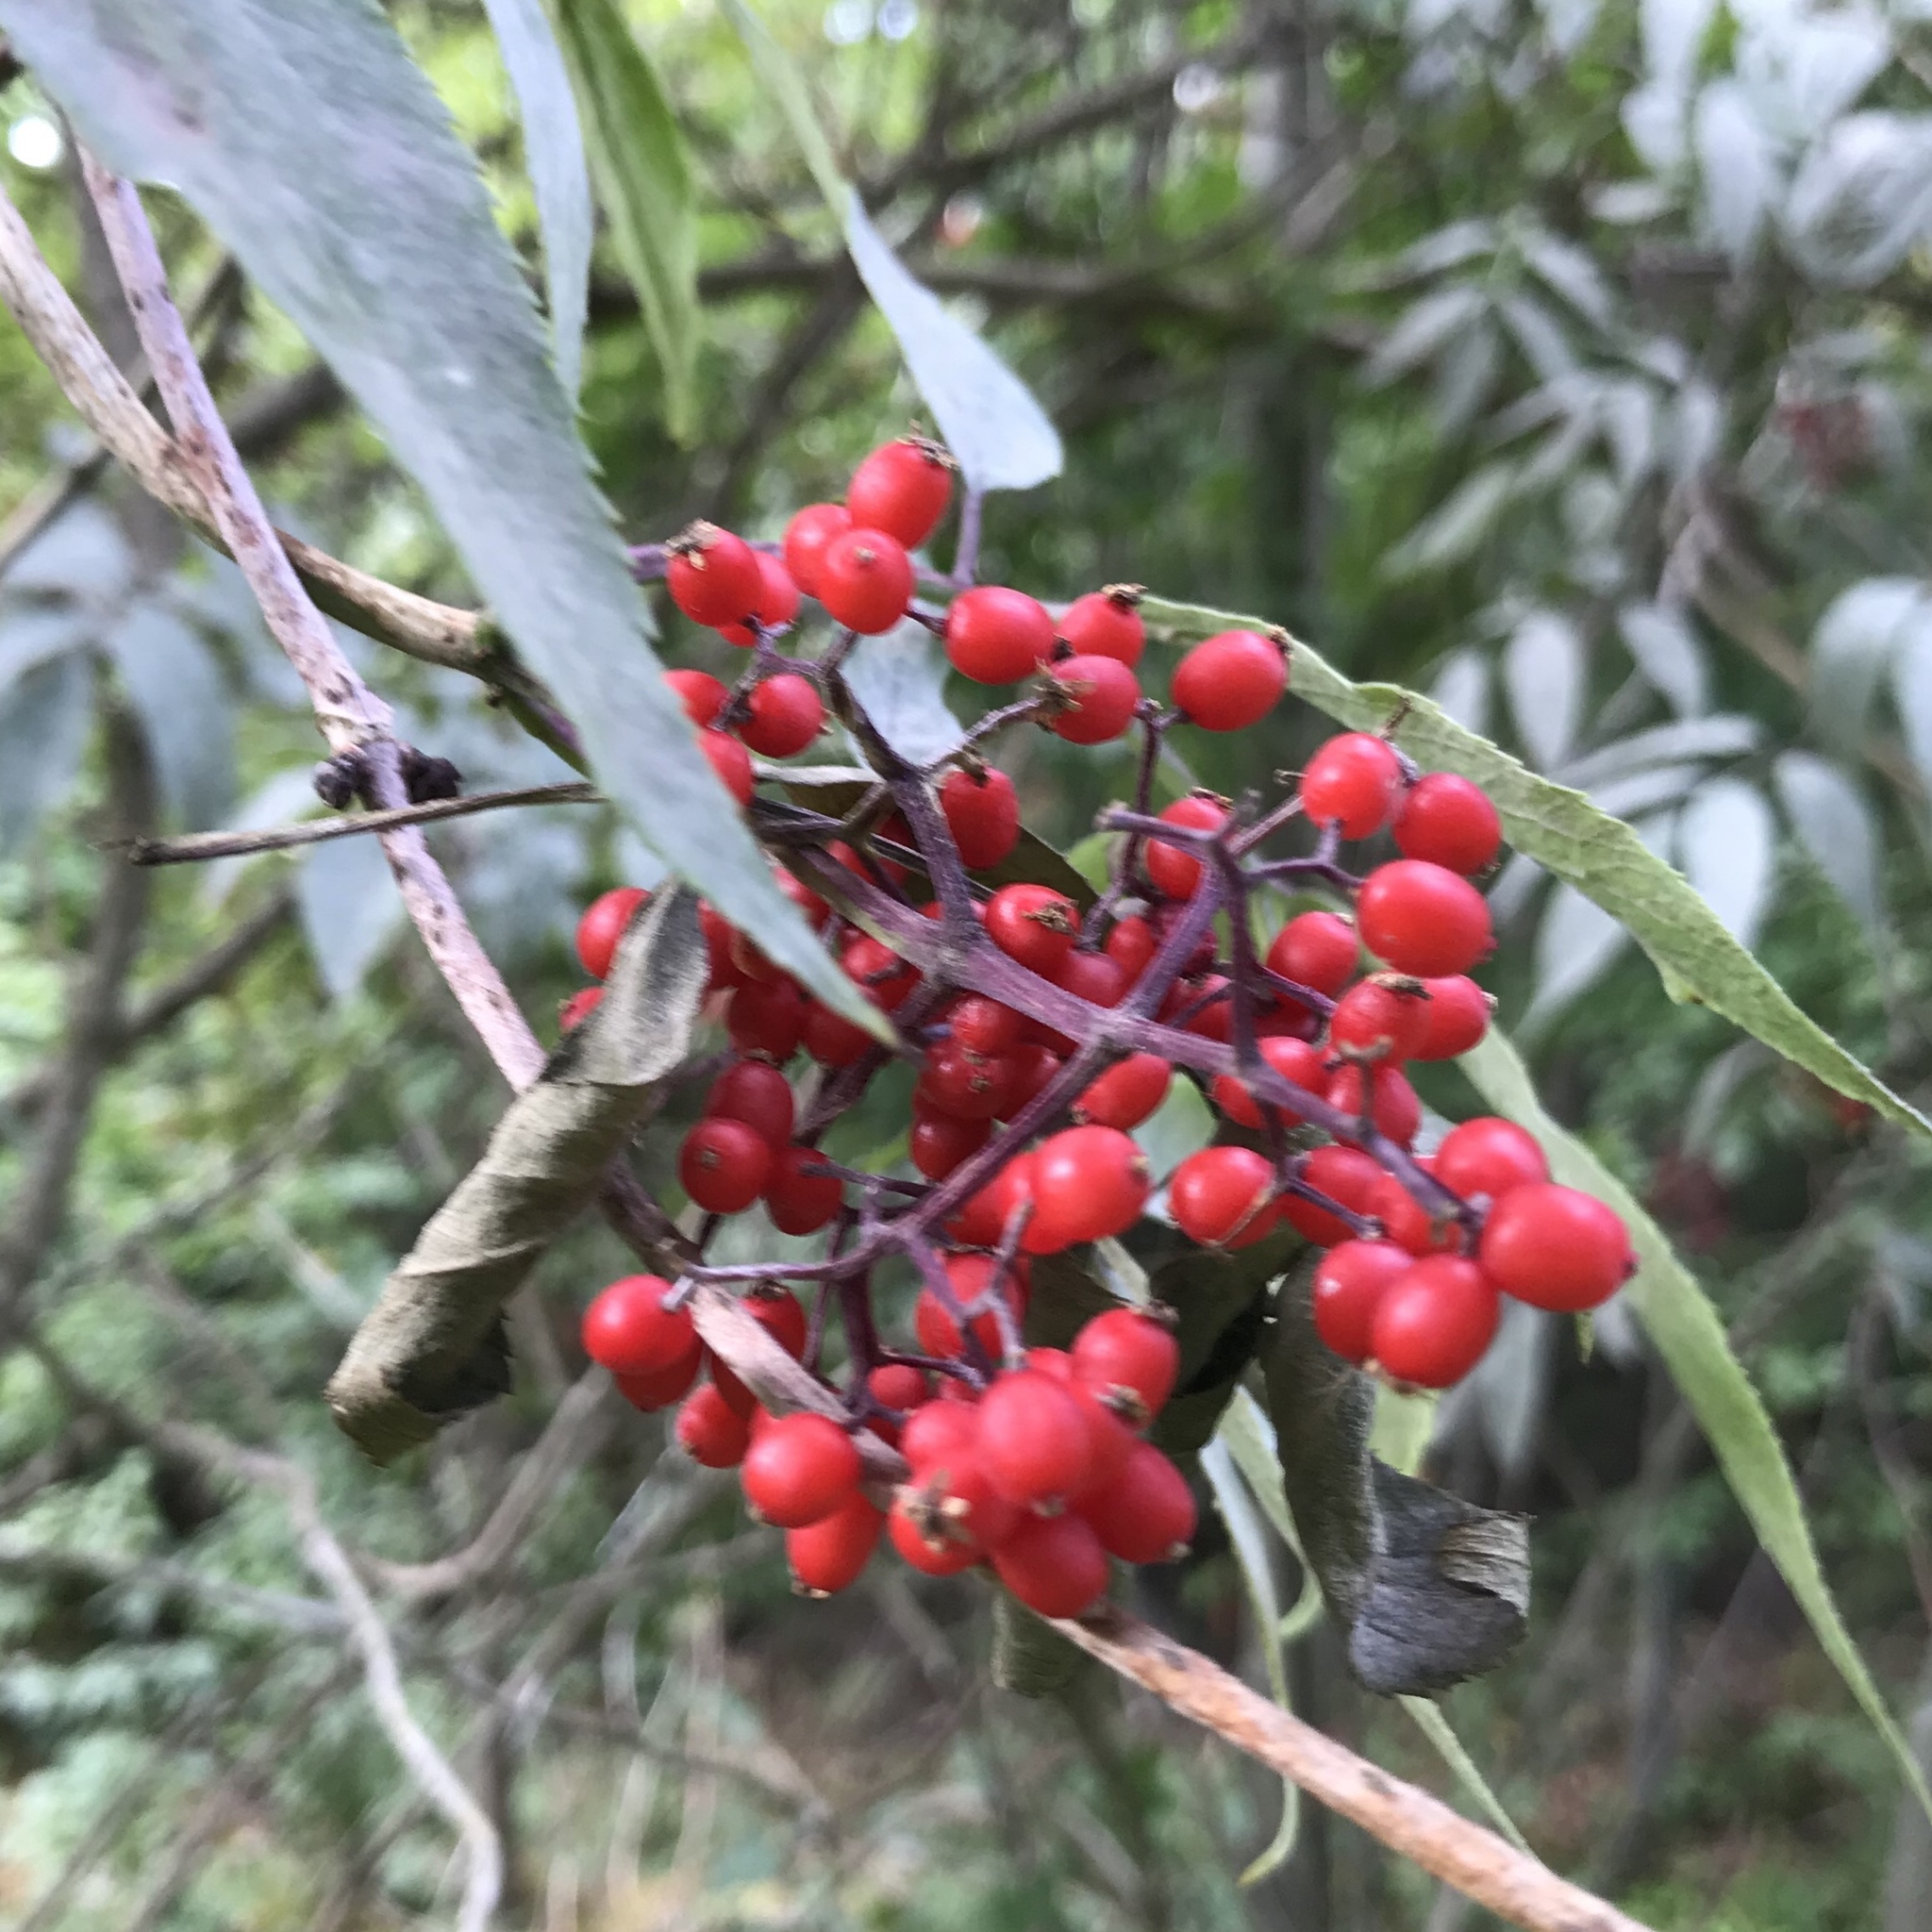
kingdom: Plantae
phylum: Tracheophyta
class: Magnoliopsida
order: Dipsacales
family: Viburnaceae
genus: Sambucus
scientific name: Sambucus racemosa
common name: Red-berried elder
